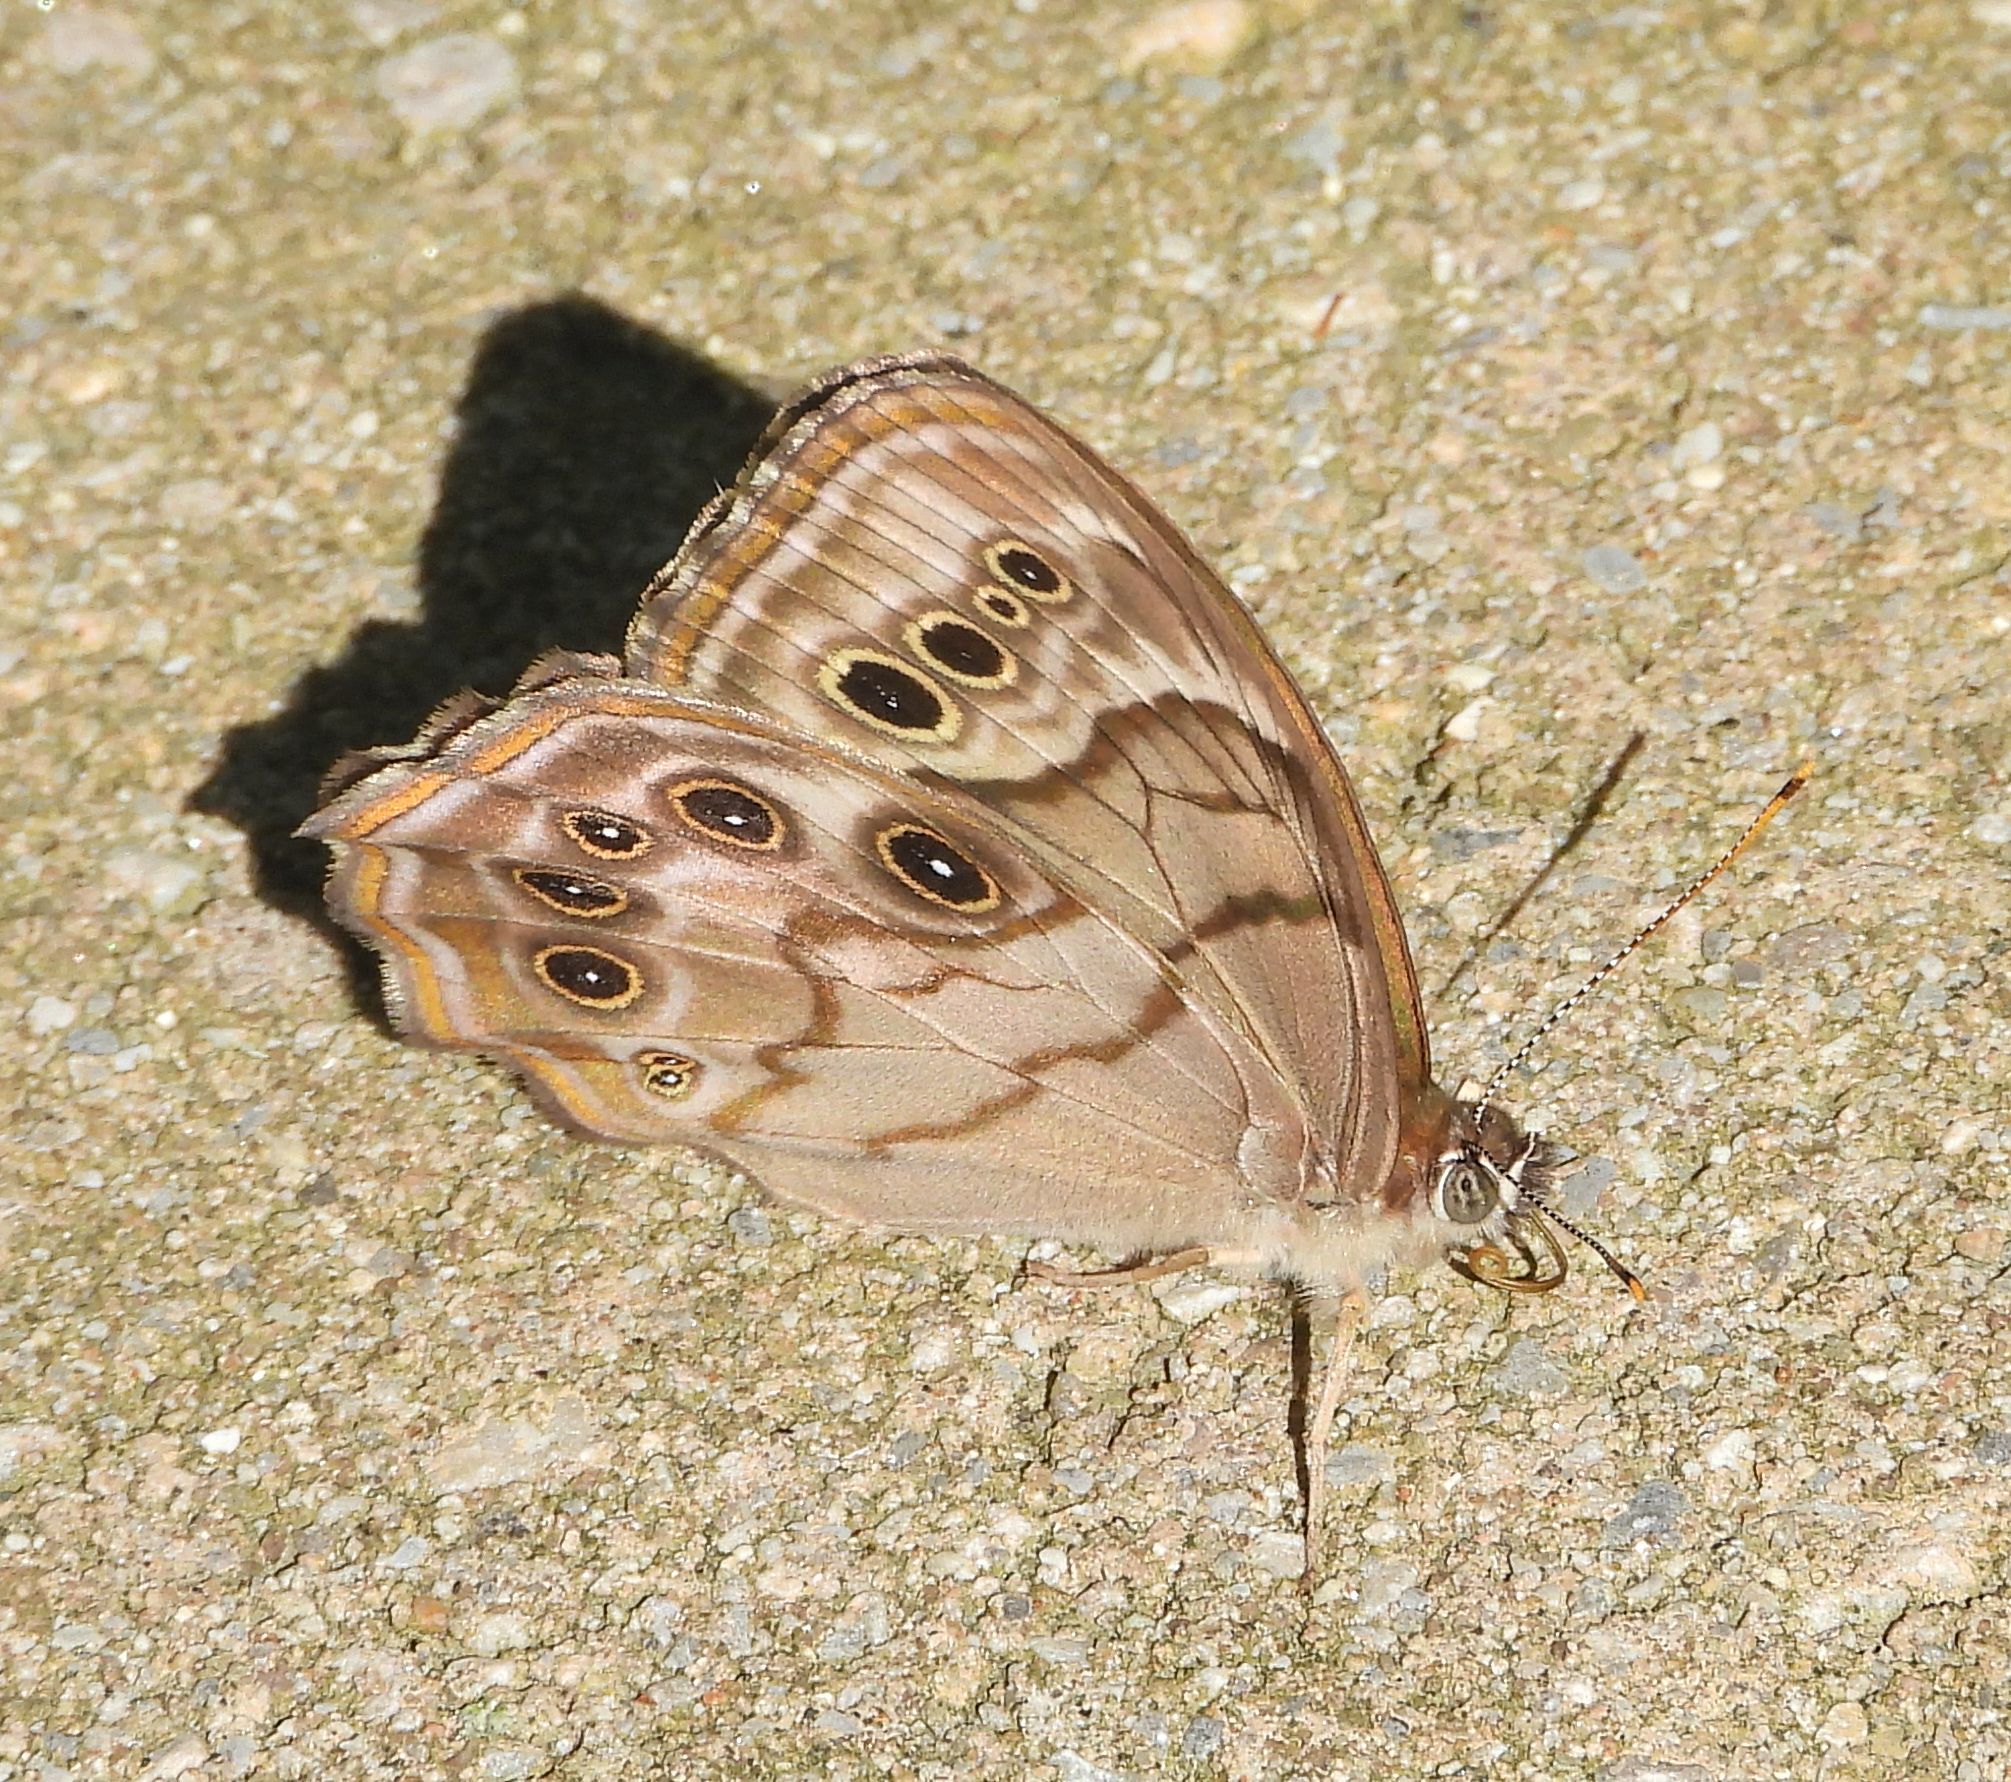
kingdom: Animalia
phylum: Arthropoda
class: Insecta
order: Lepidoptera
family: Nymphalidae
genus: Lethe
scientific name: Lethe anthedon
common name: Northern pearly-eye
